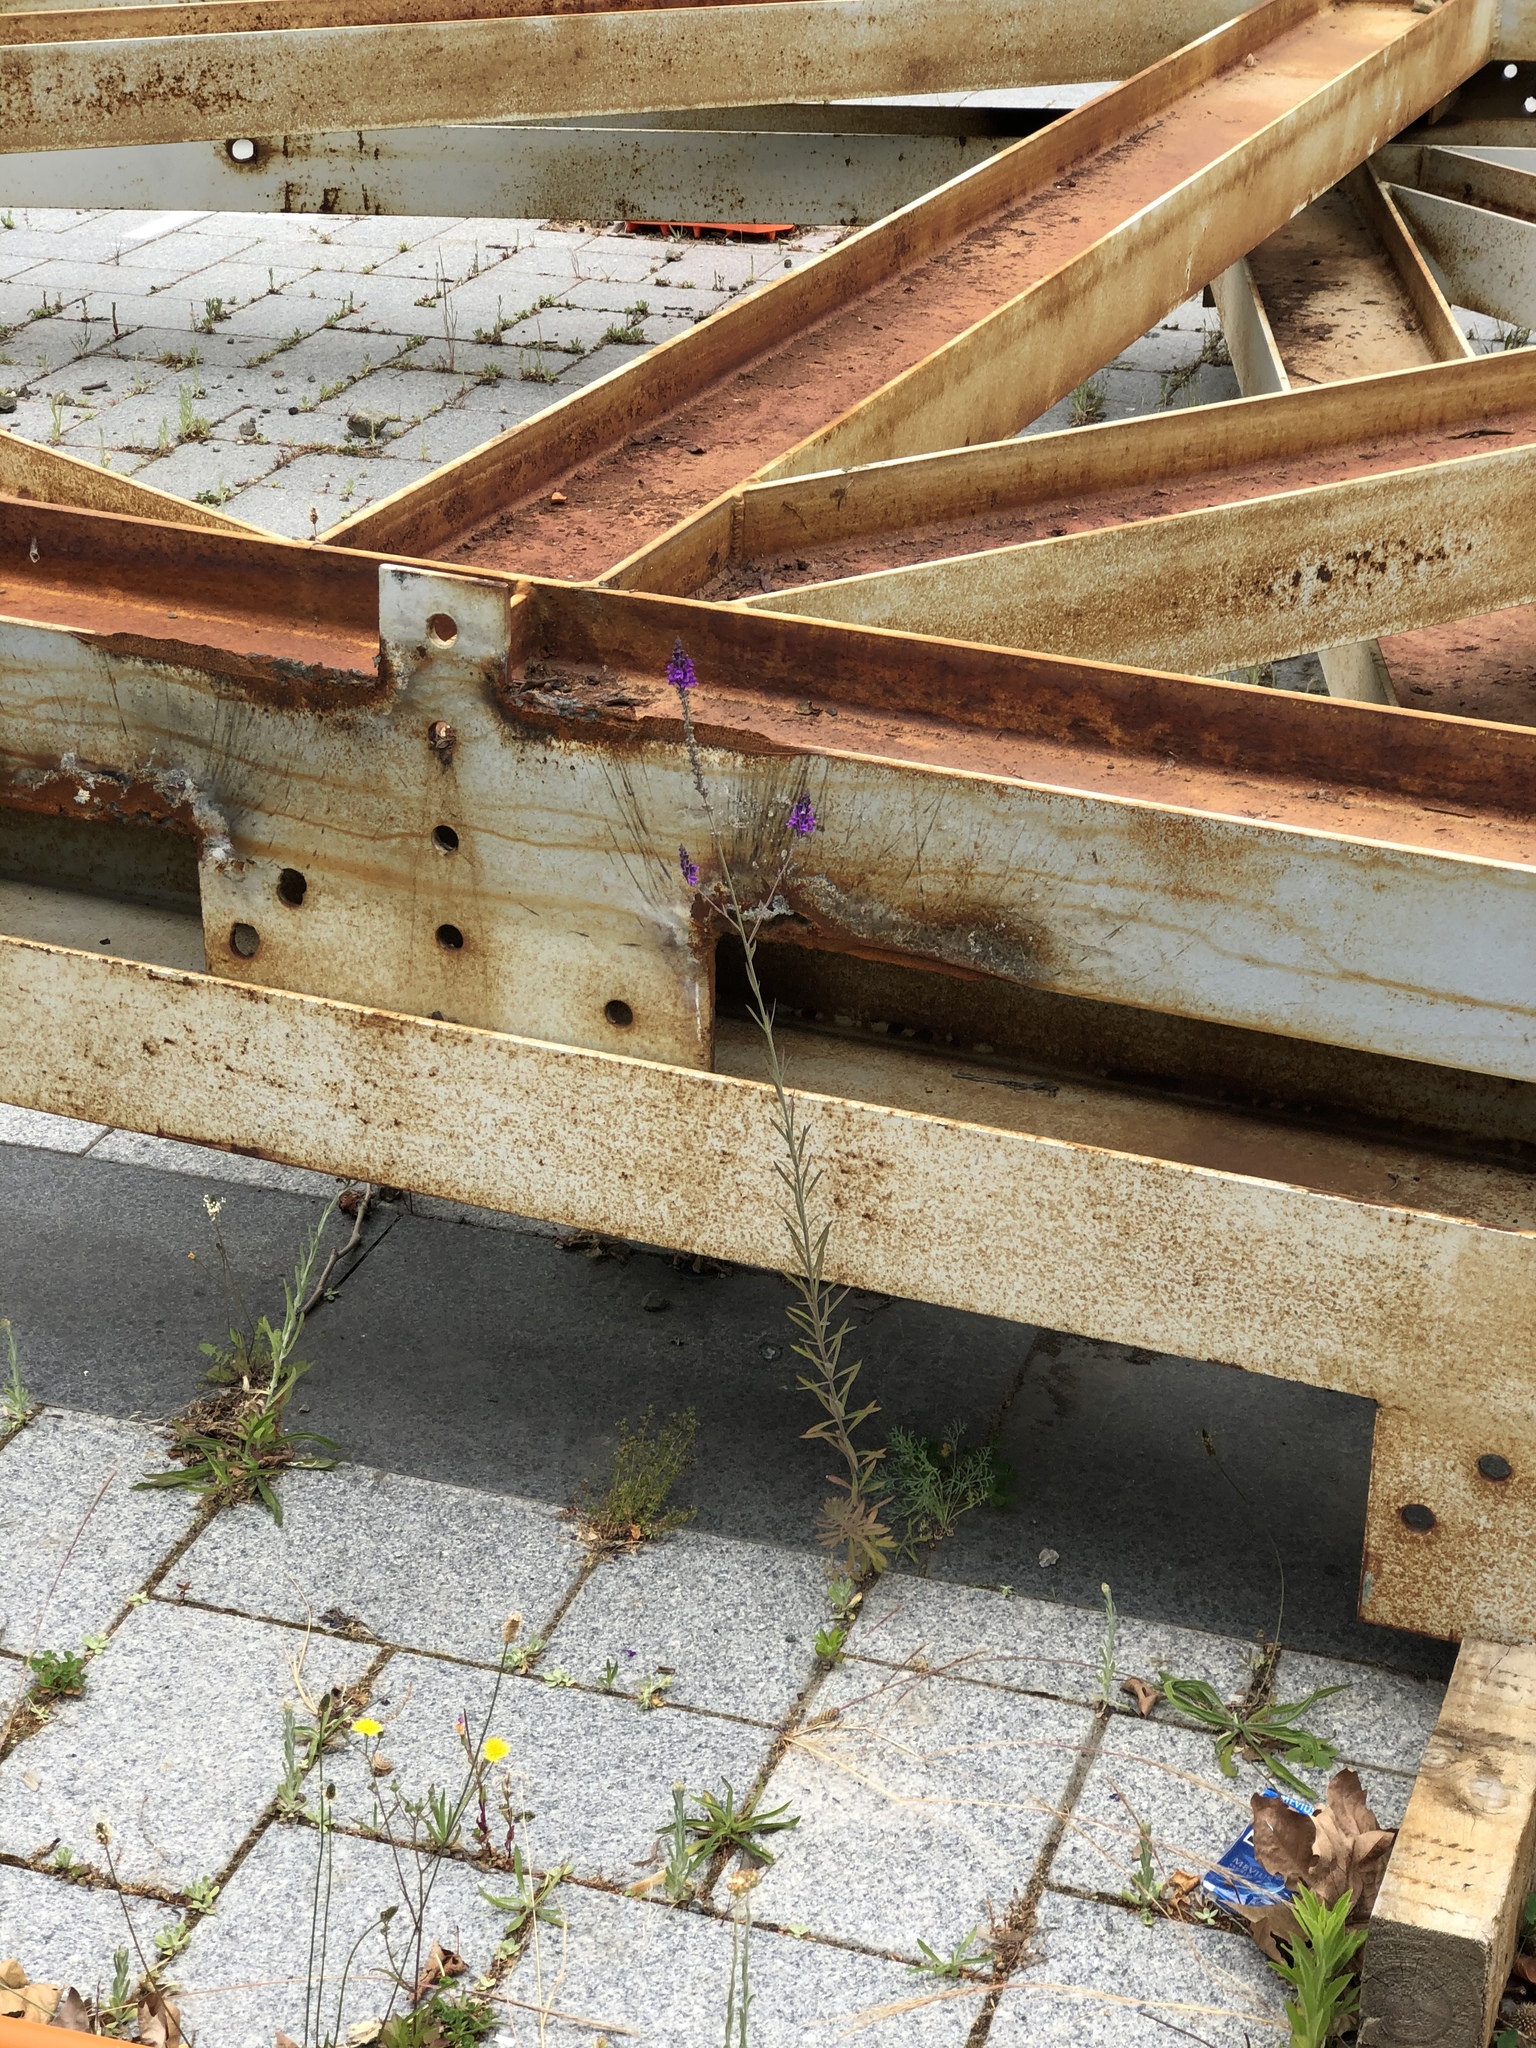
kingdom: Plantae
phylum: Tracheophyta
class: Magnoliopsida
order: Lamiales
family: Plantaginaceae
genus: Linaria
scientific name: Linaria purpurea
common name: Purple toadflax
